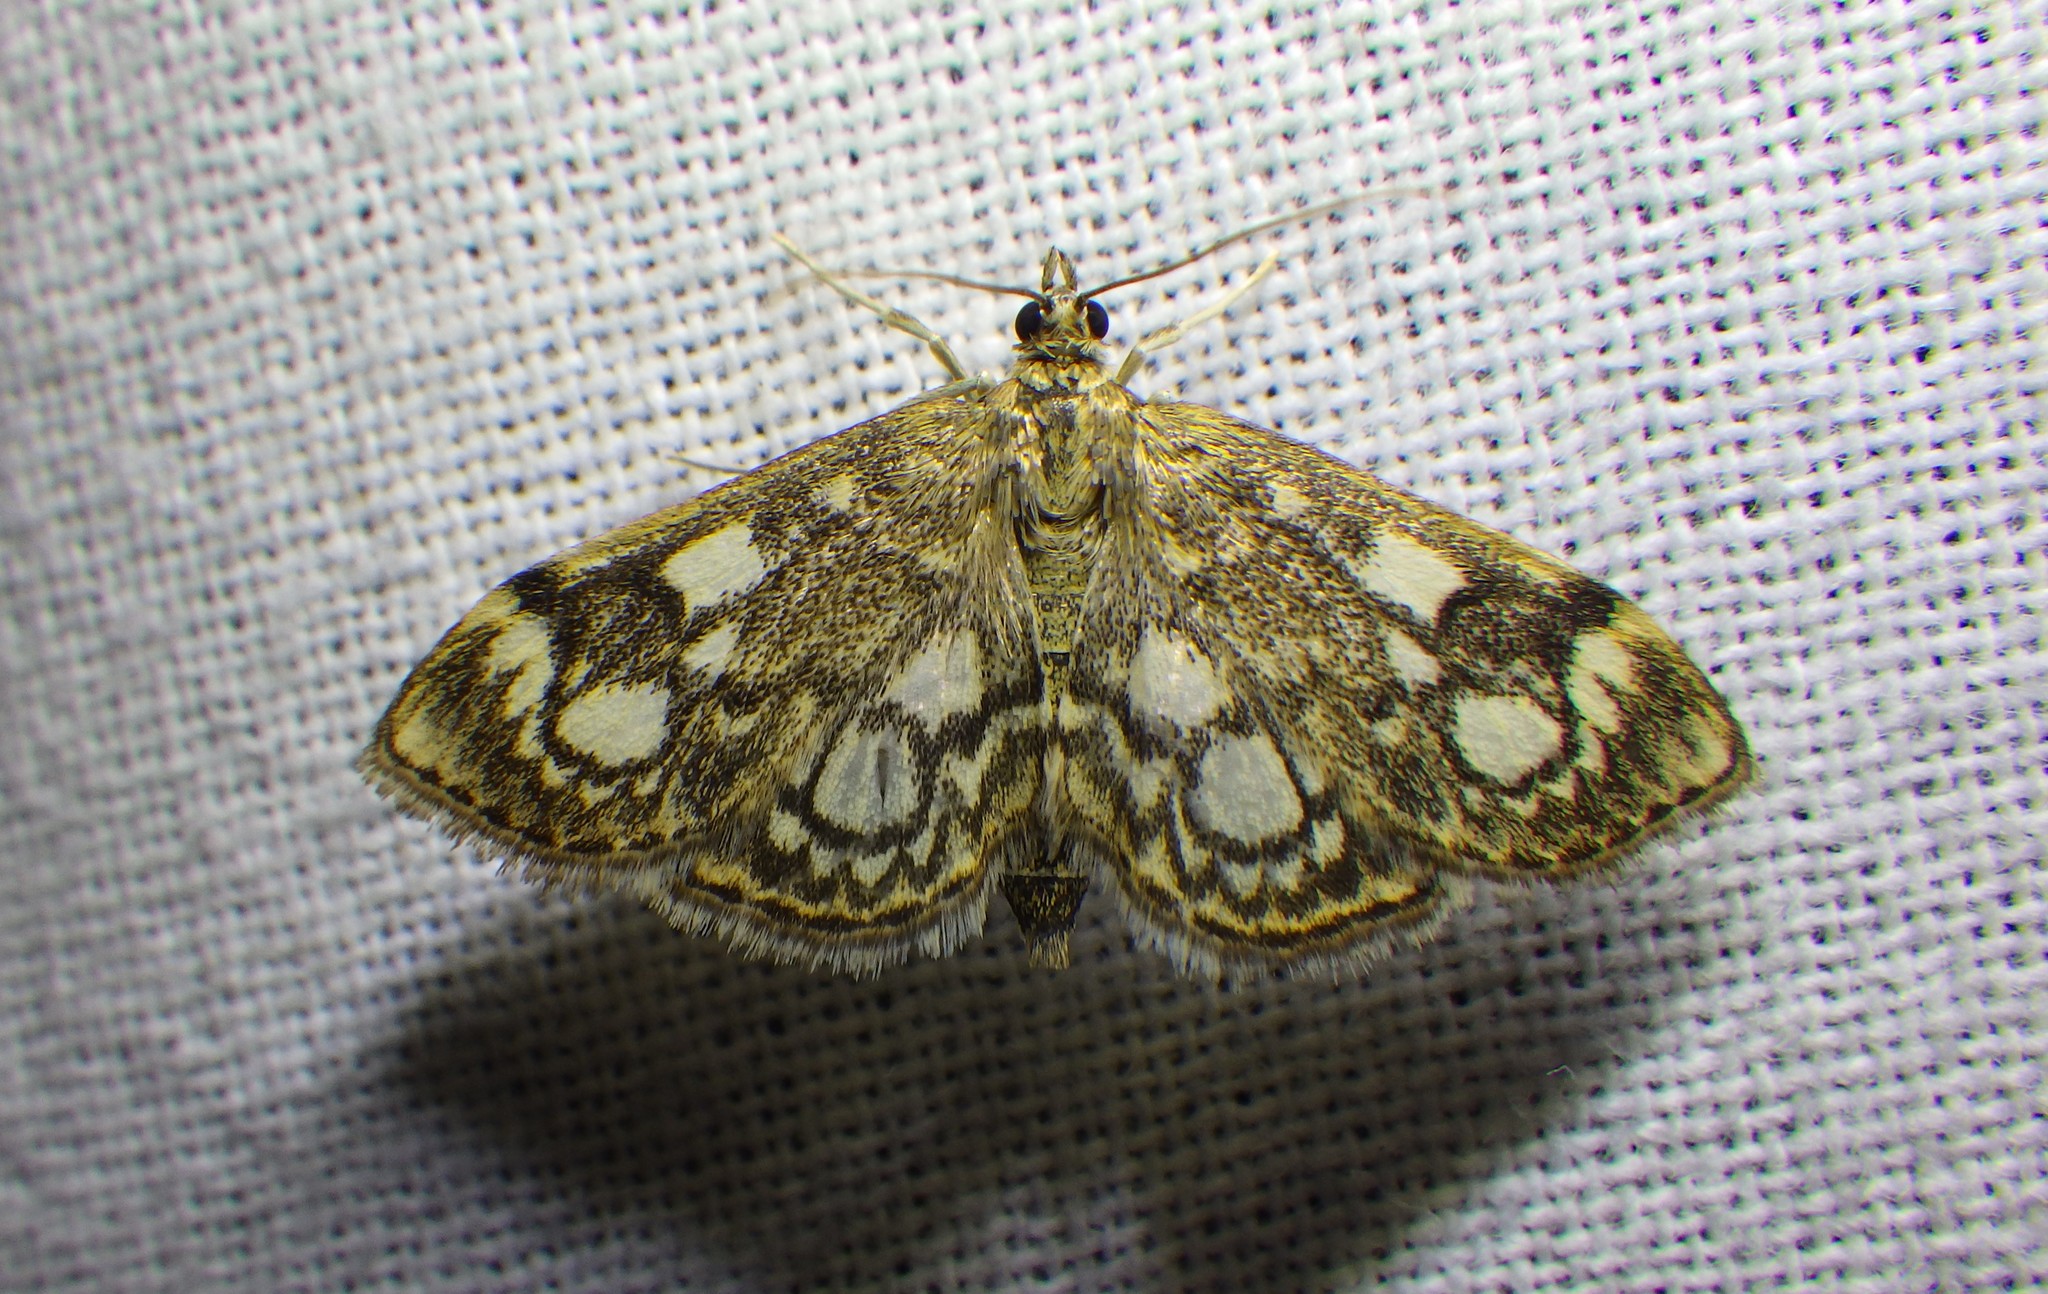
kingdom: Animalia
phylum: Arthropoda
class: Insecta
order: Lepidoptera
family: Crambidae
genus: Anania
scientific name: Anania coronata
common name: Elder pearl
